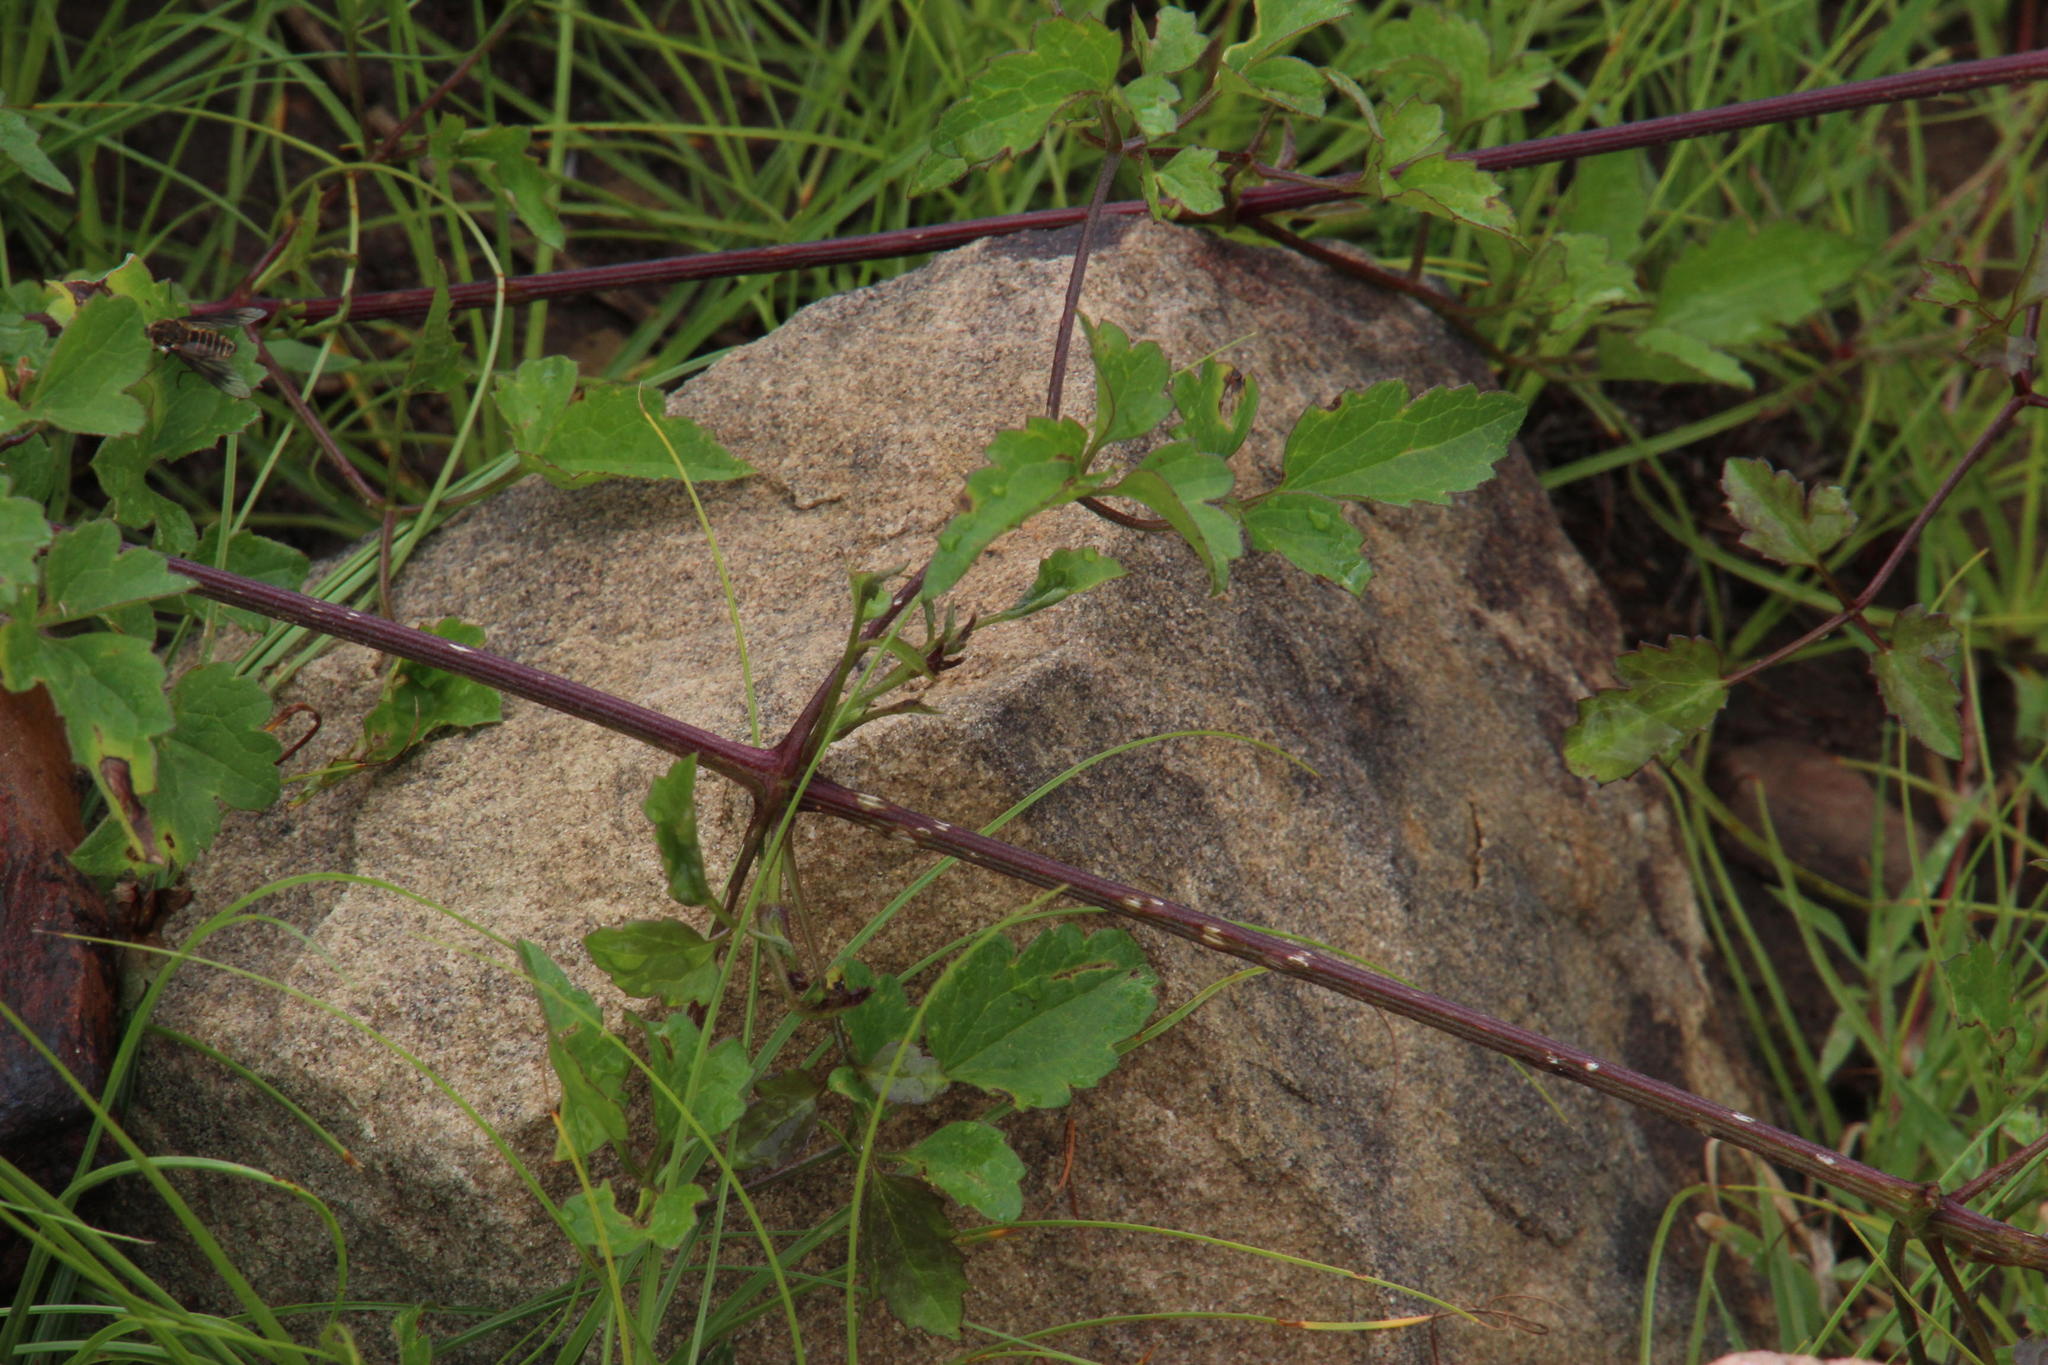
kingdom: Plantae
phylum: Tracheophyta
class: Magnoliopsida
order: Ranunculales
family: Ranunculaceae
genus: Clematis
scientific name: Clematis brachiata
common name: Traveler's-joy
